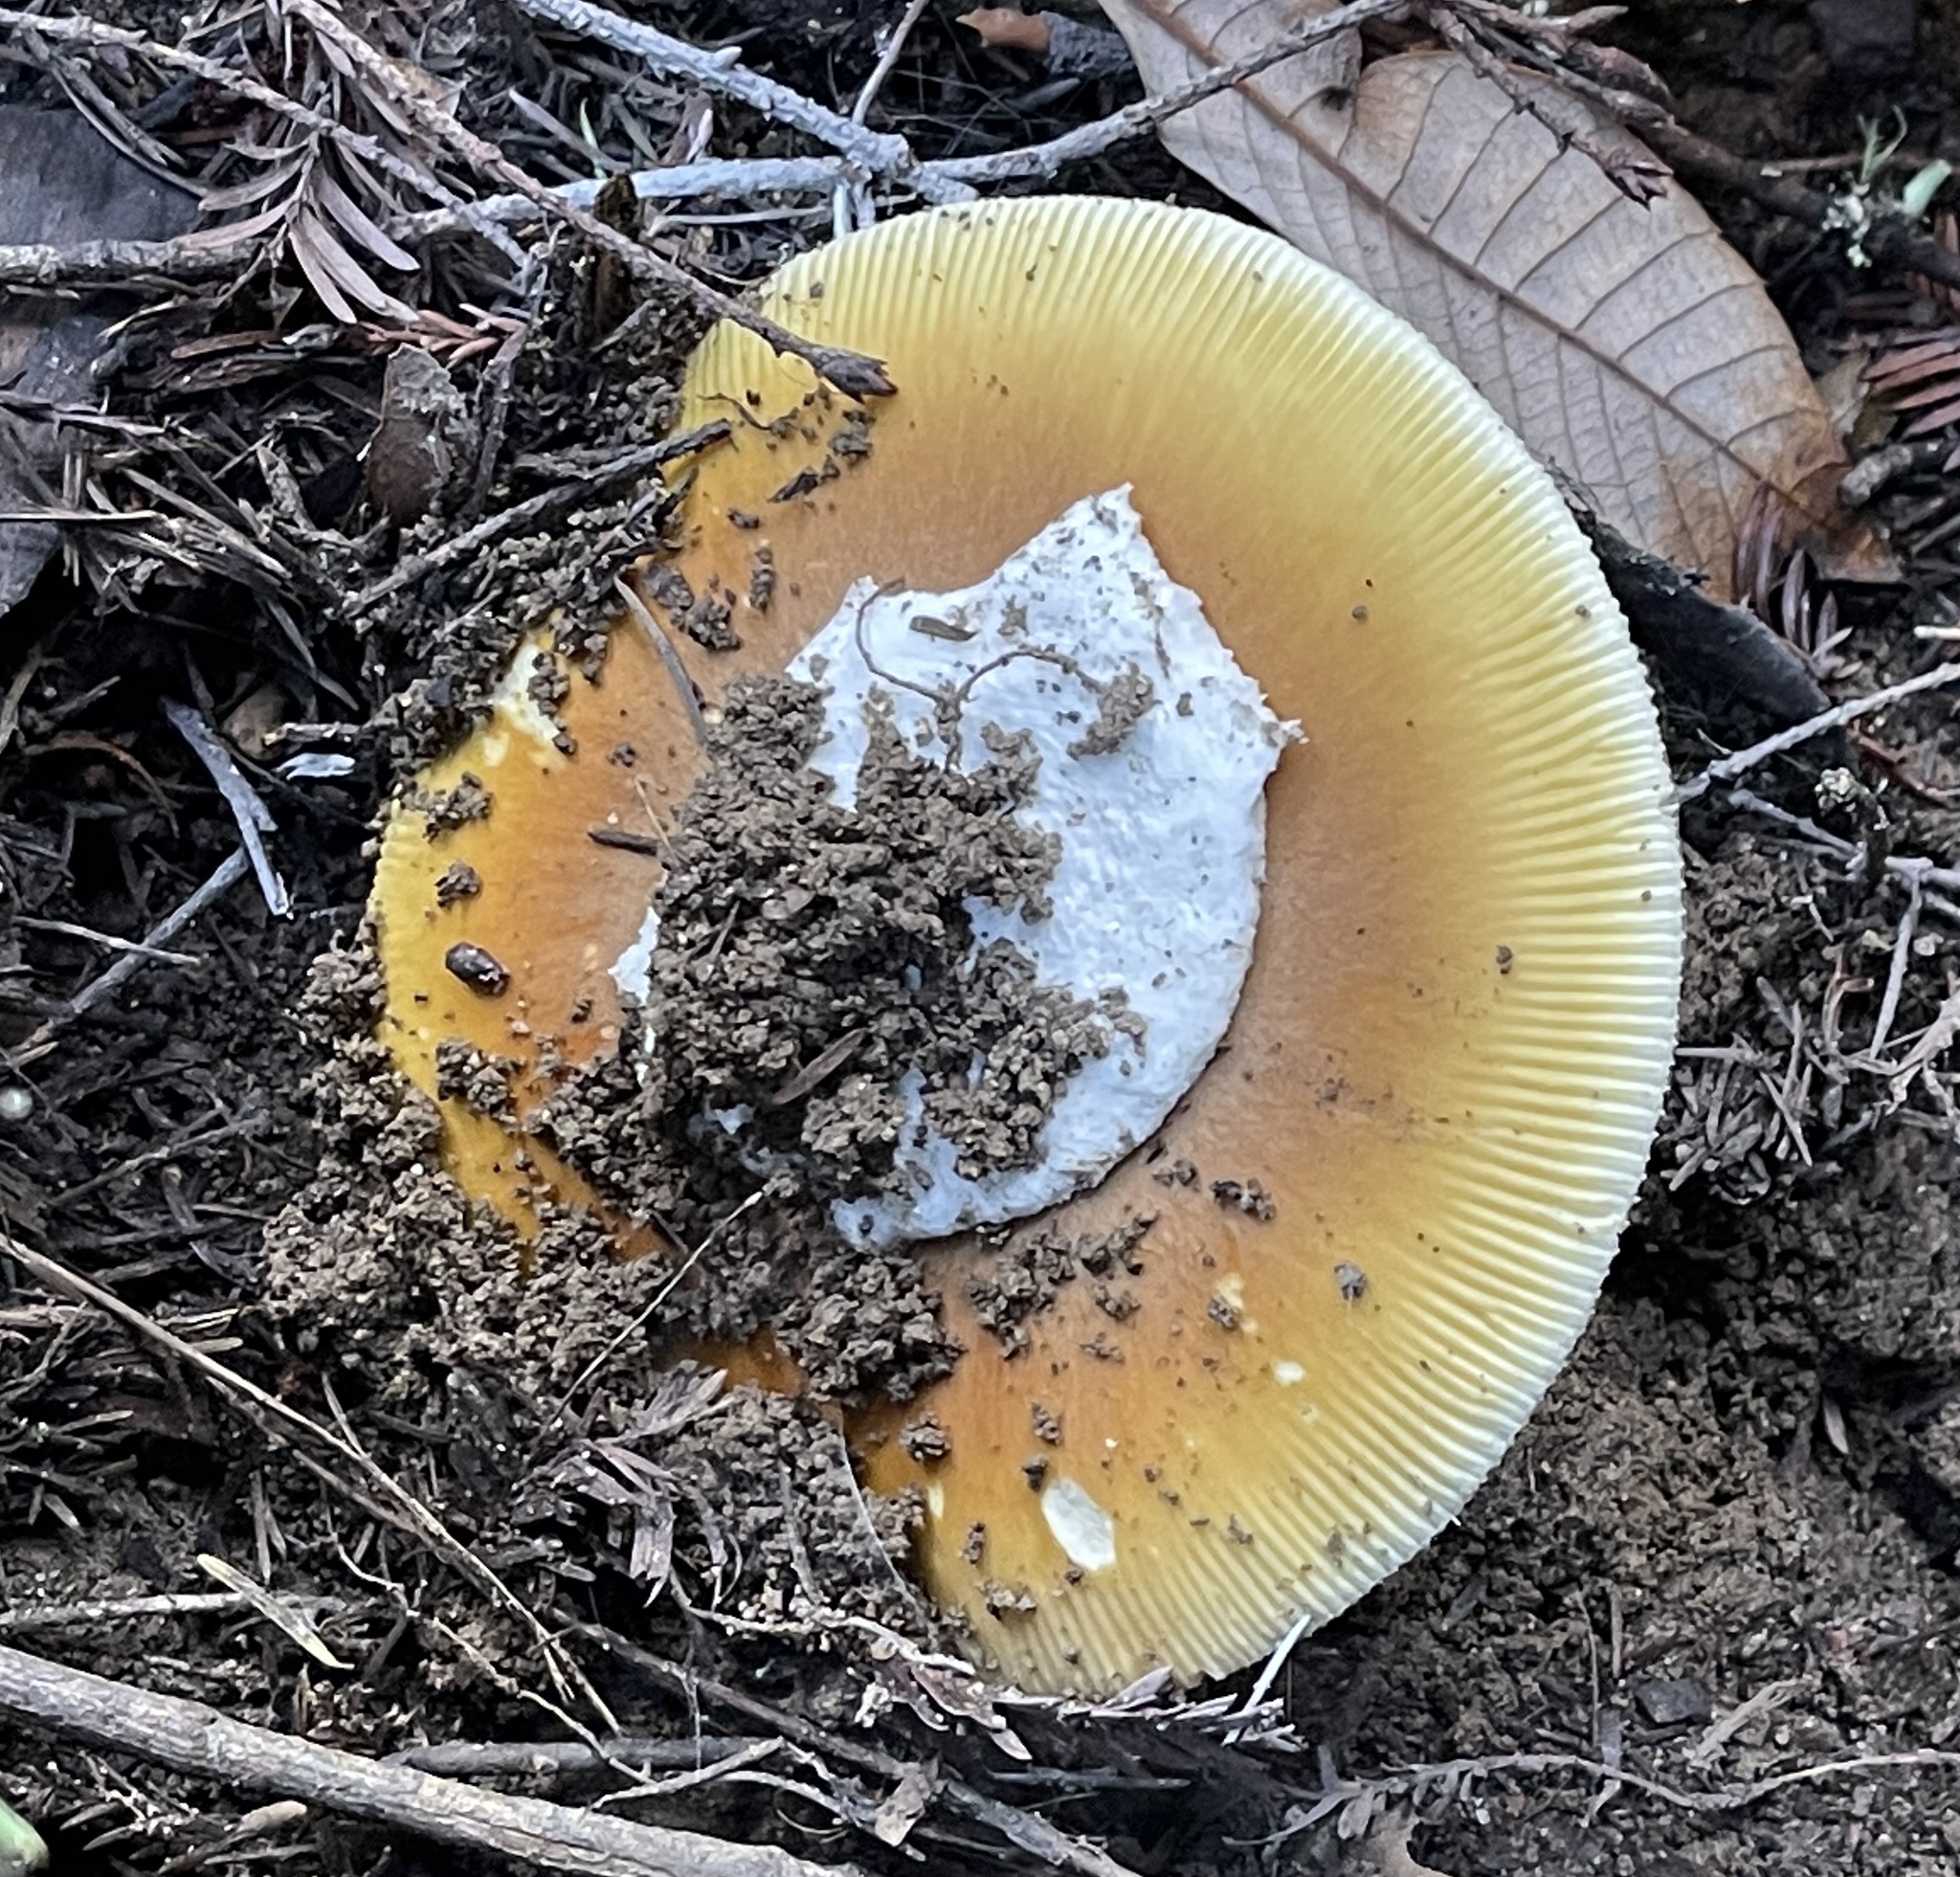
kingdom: Fungi
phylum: Basidiomycota
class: Agaricomycetes
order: Agaricales
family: Amanitaceae
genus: Amanita
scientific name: Amanita calyptroderma
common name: Coccora
